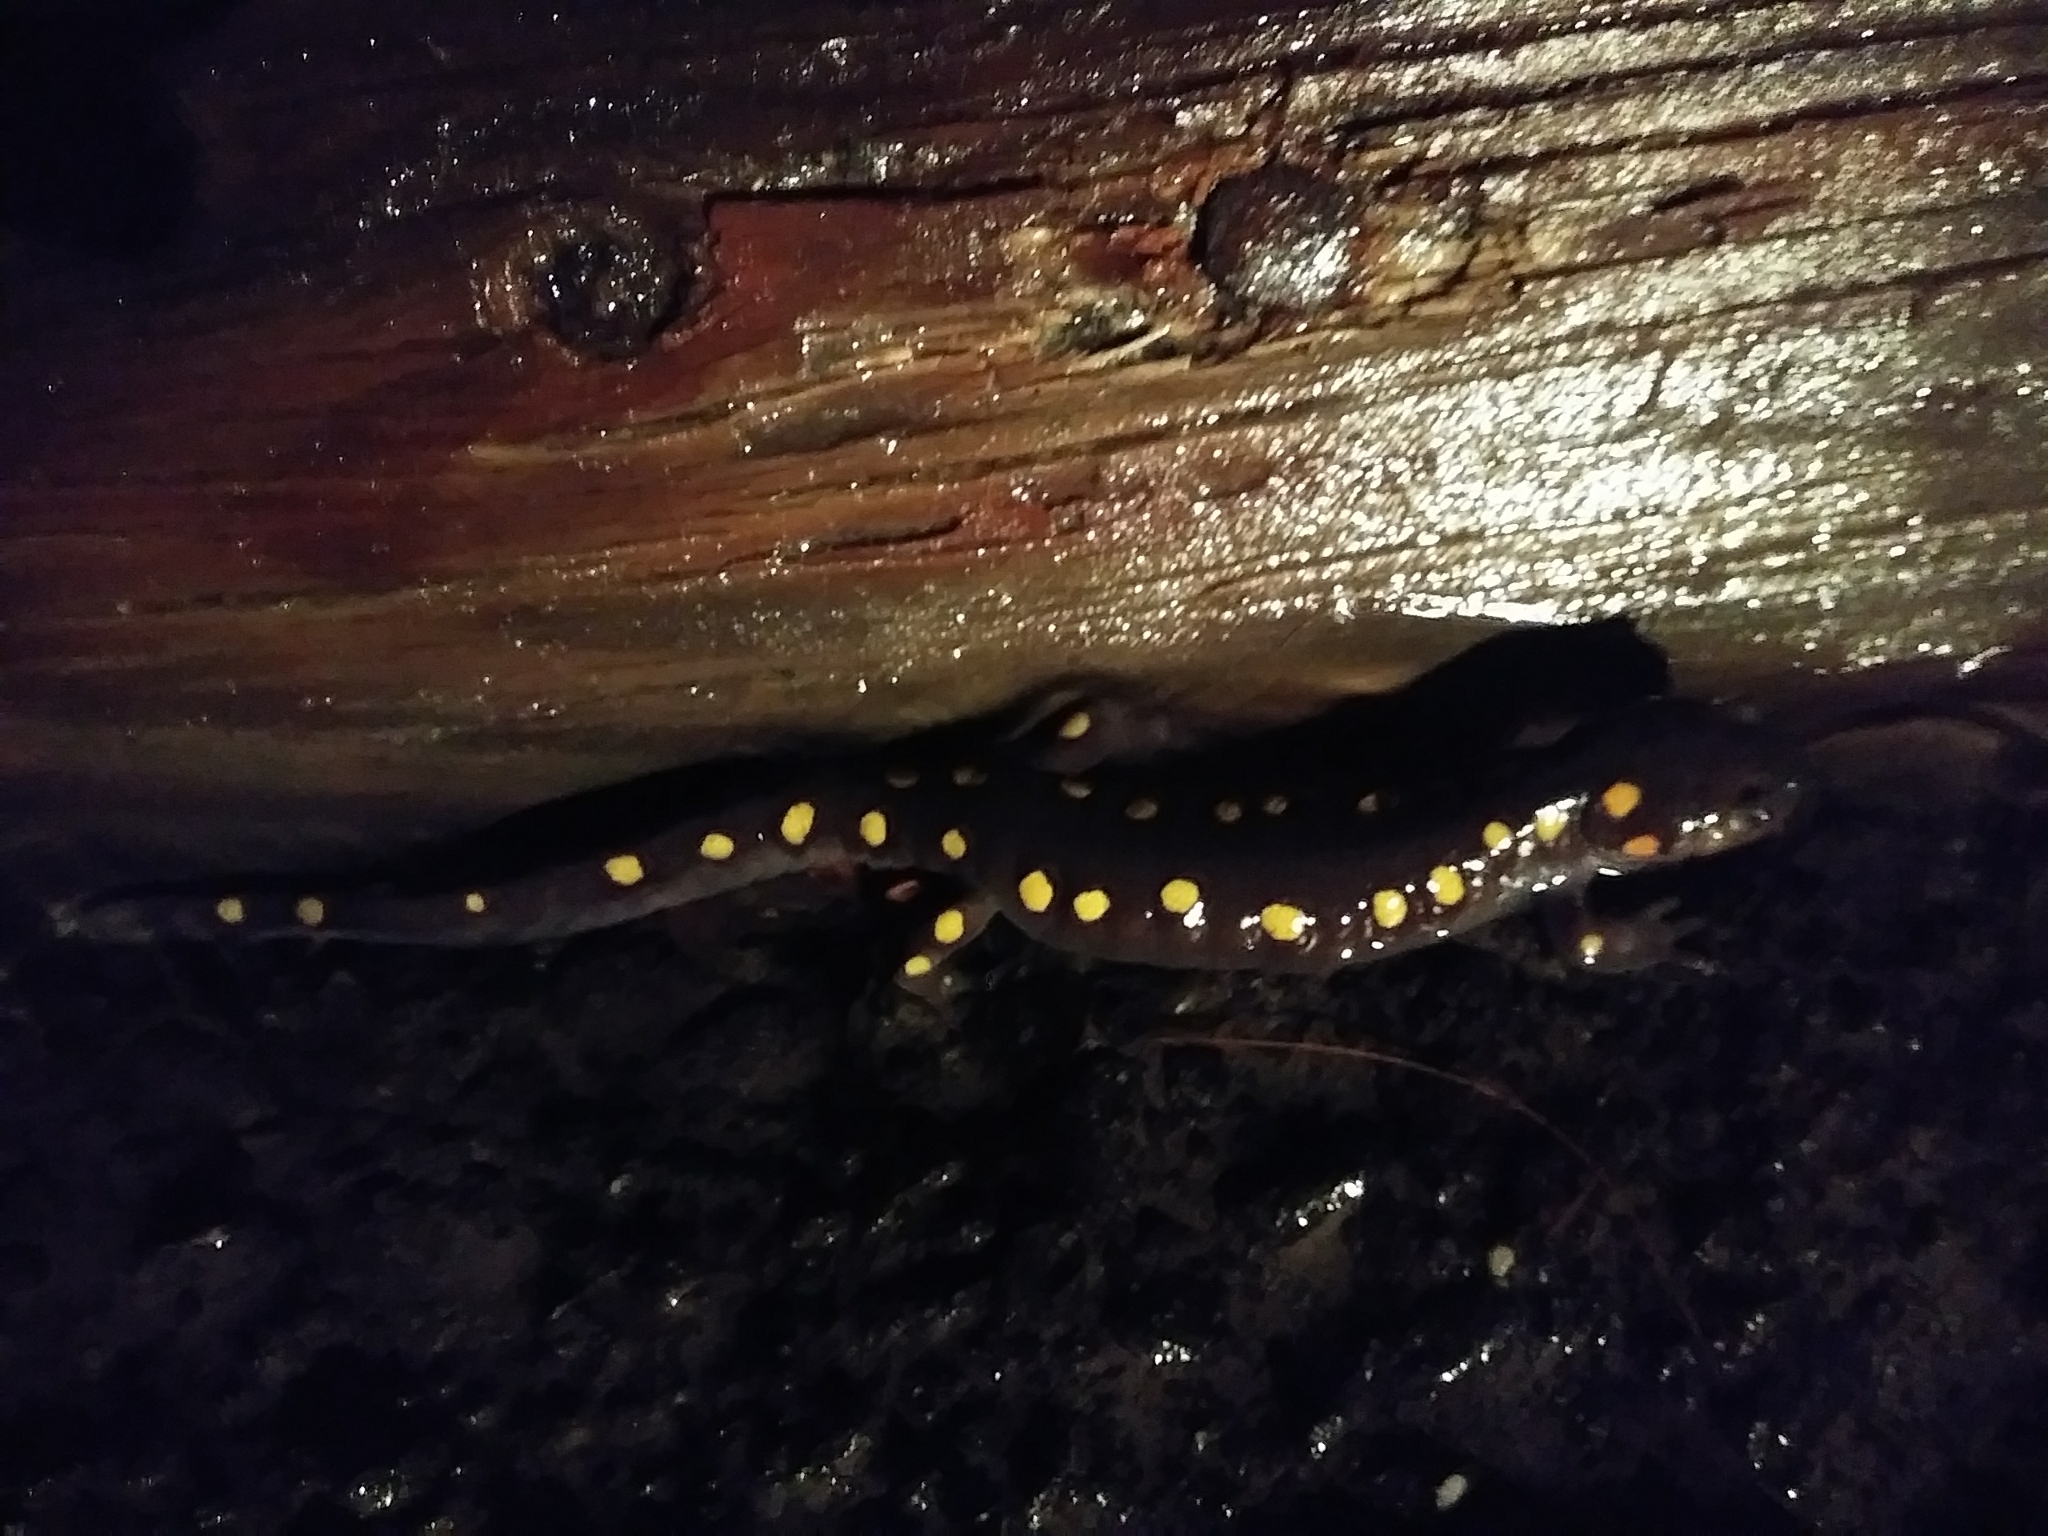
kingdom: Animalia
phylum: Chordata
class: Amphibia
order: Caudata
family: Ambystomatidae
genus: Ambystoma
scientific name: Ambystoma maculatum
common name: Spotted salamander
